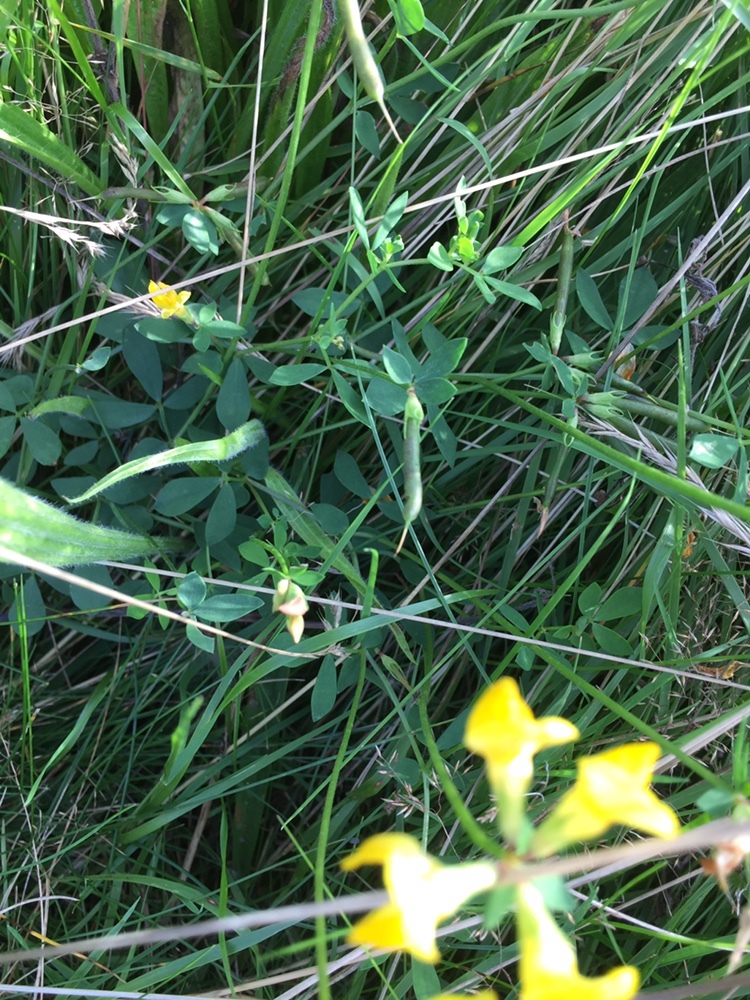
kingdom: Plantae
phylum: Tracheophyta
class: Magnoliopsida
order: Fabales
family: Fabaceae
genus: Lotus
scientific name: Lotus corniculatus
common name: Common bird's-foot-trefoil
